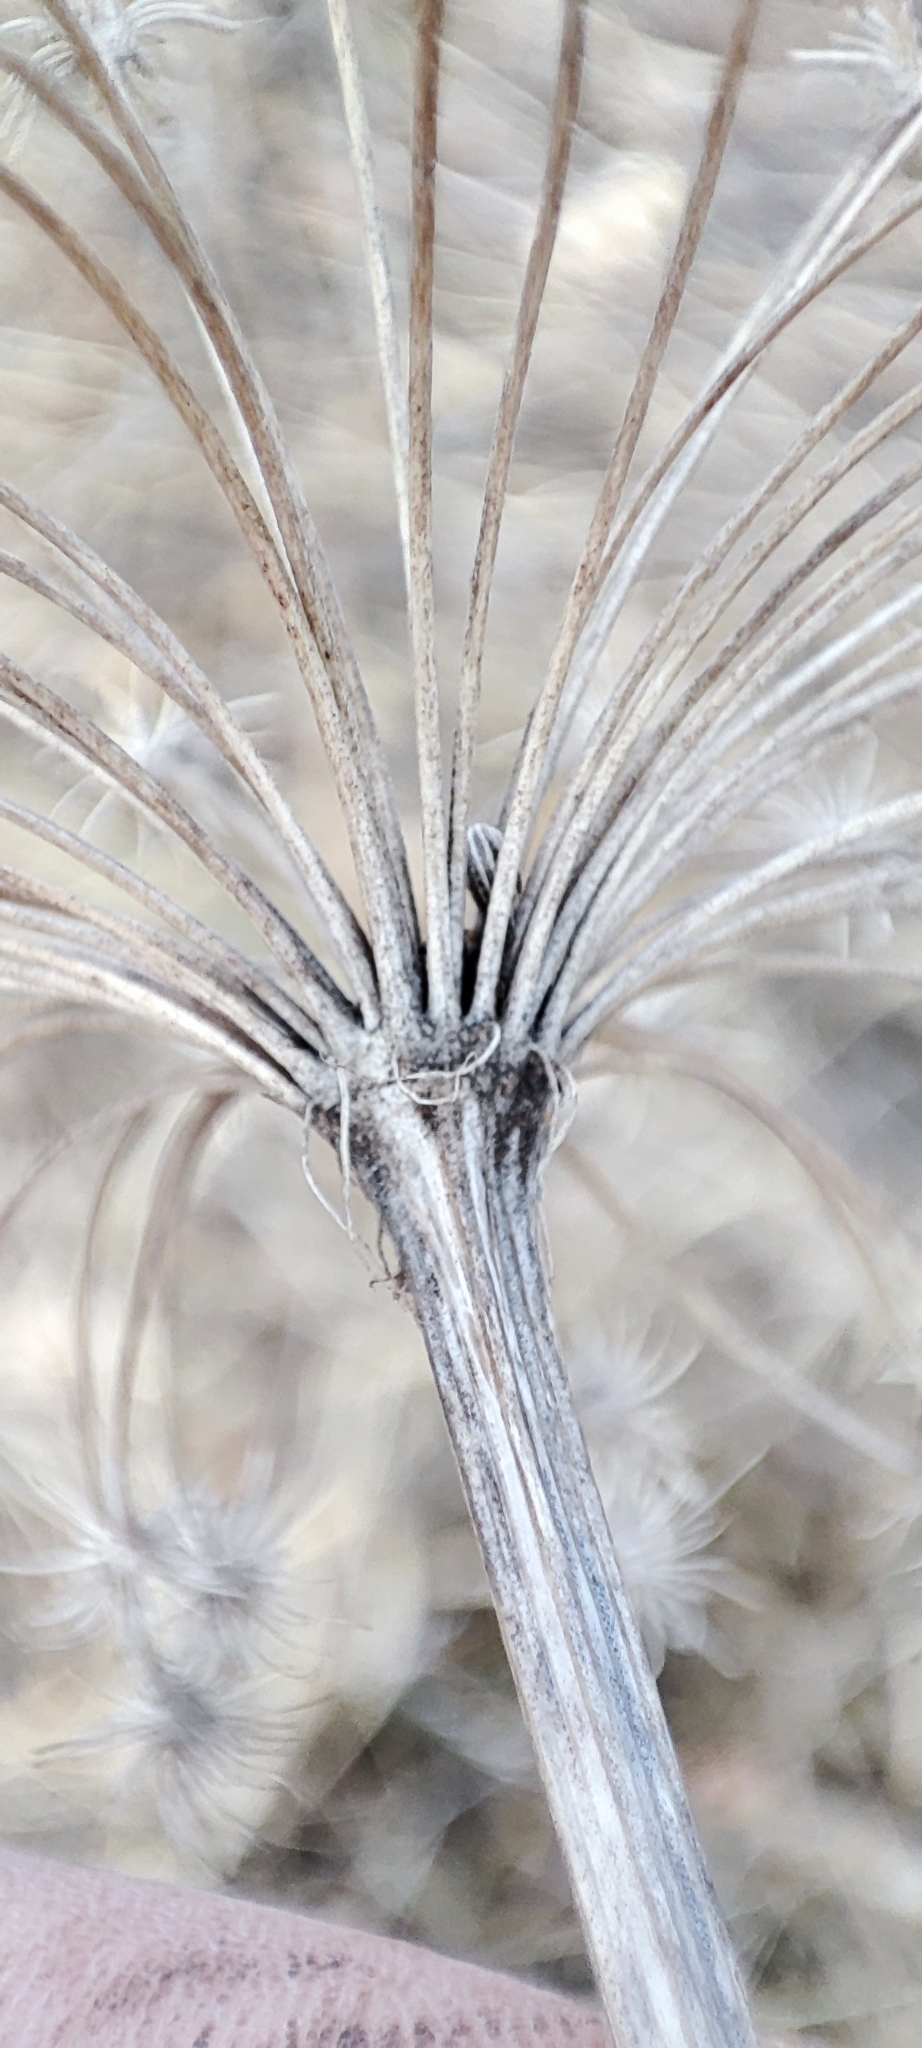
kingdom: Plantae
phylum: Tracheophyta
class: Magnoliopsida
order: Apiales
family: Apiaceae
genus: Seseli
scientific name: Seseli libanotis
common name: Mooncarrot
